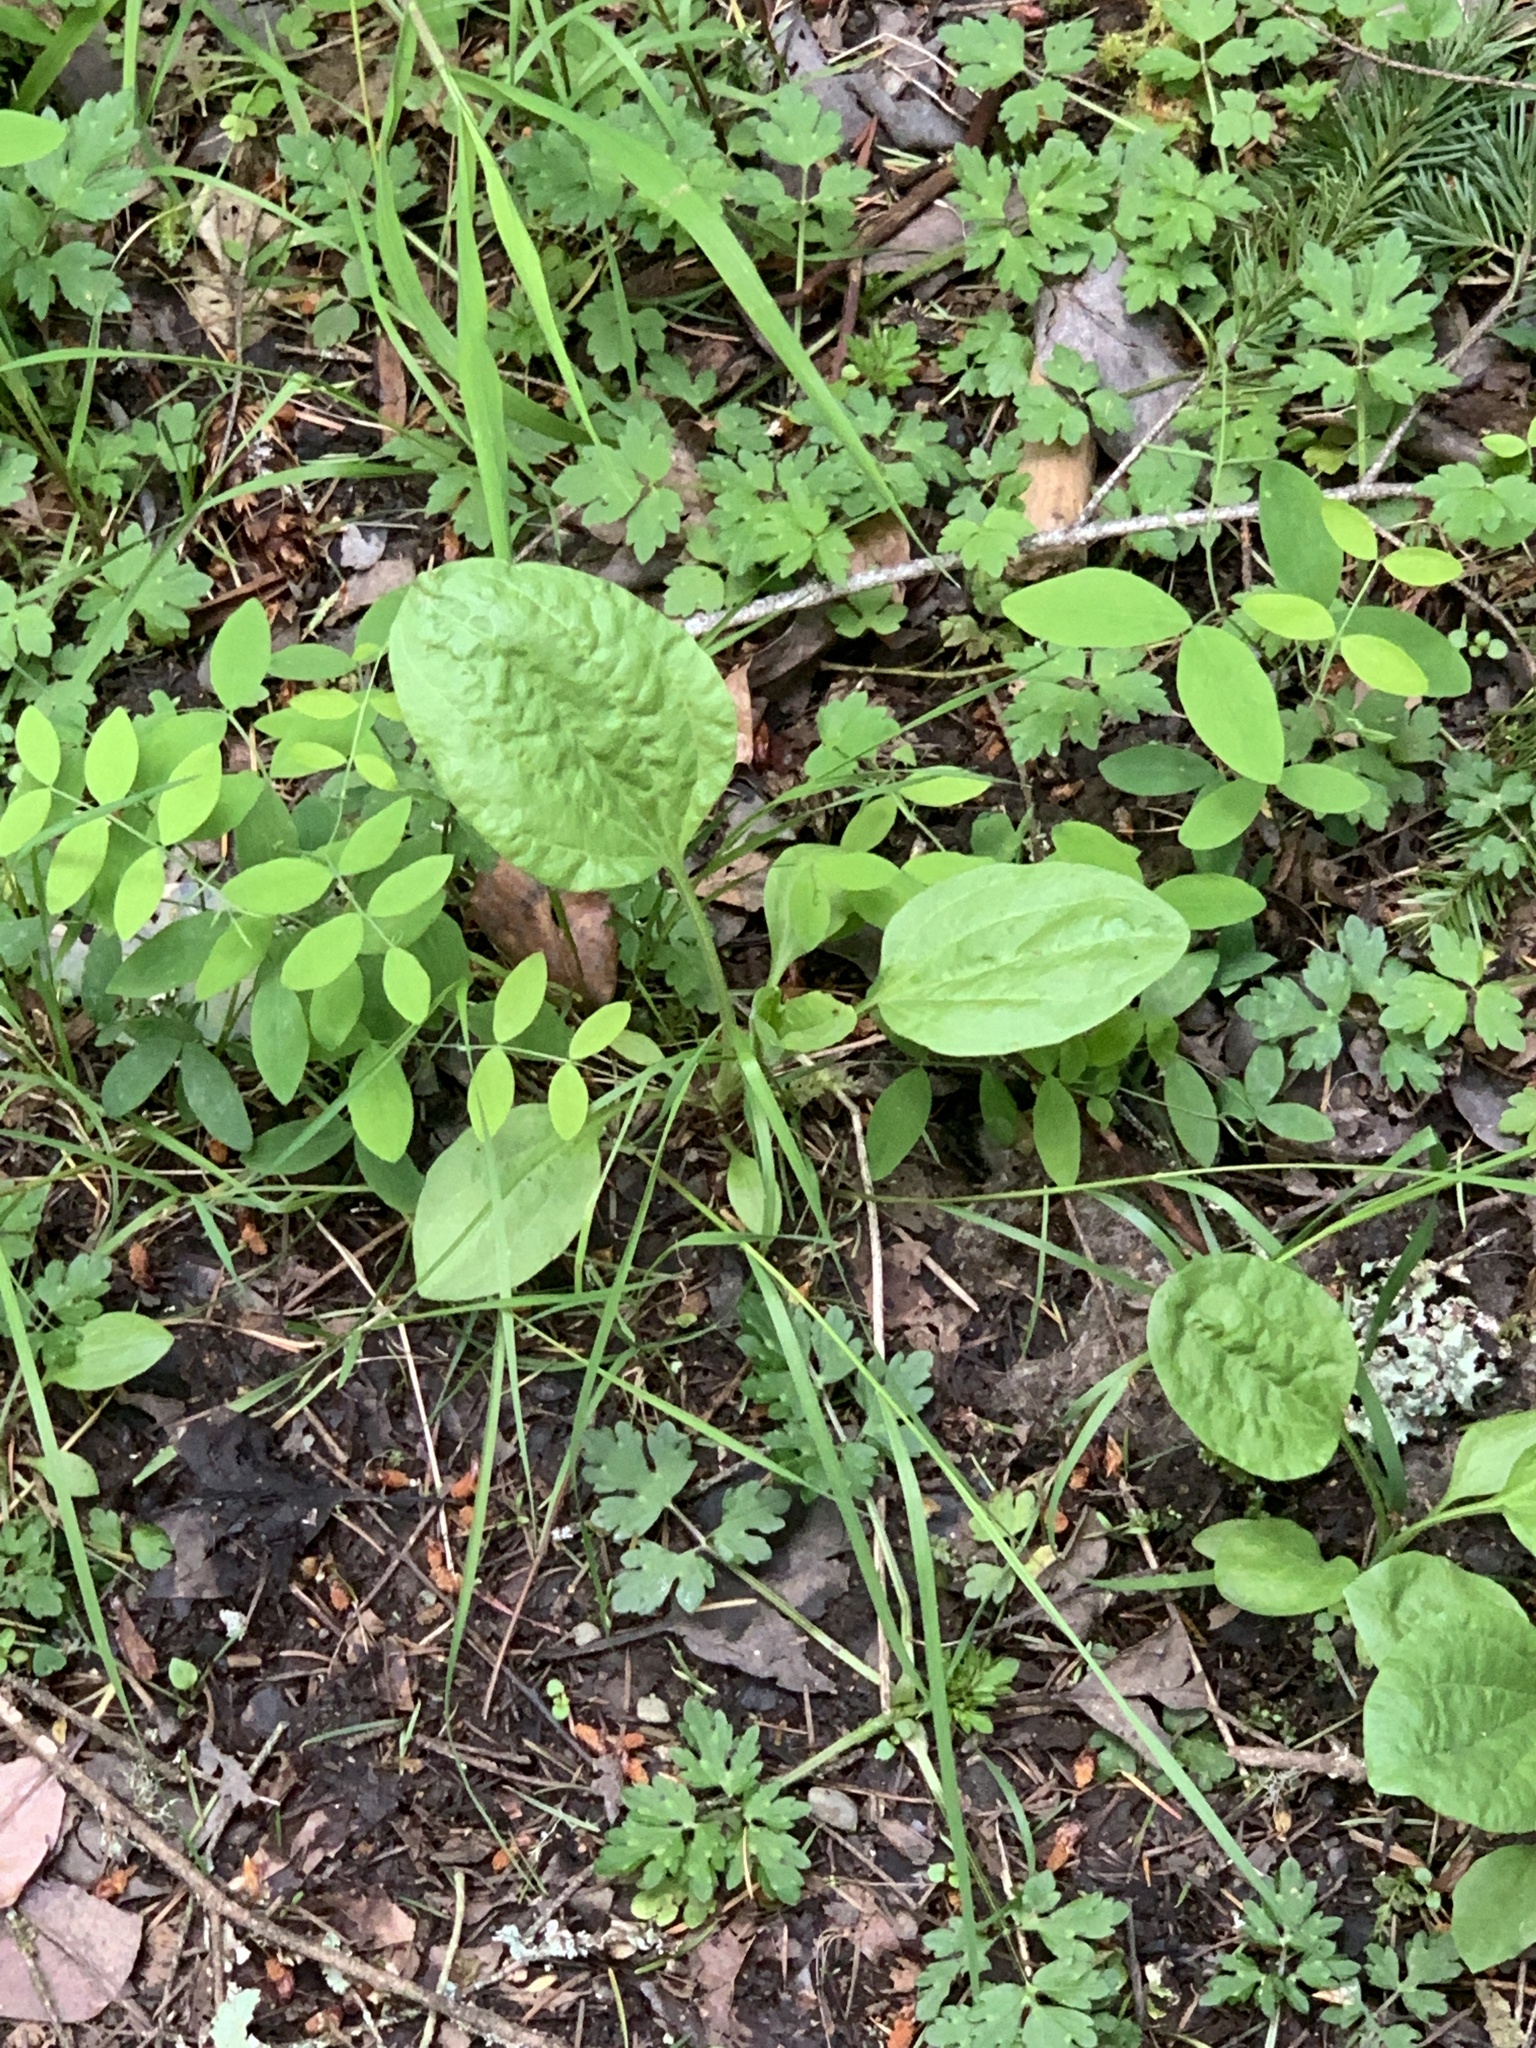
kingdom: Plantae
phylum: Tracheophyta
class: Magnoliopsida
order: Lamiales
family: Plantaginaceae
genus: Plantago
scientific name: Plantago major
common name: Common plantain
